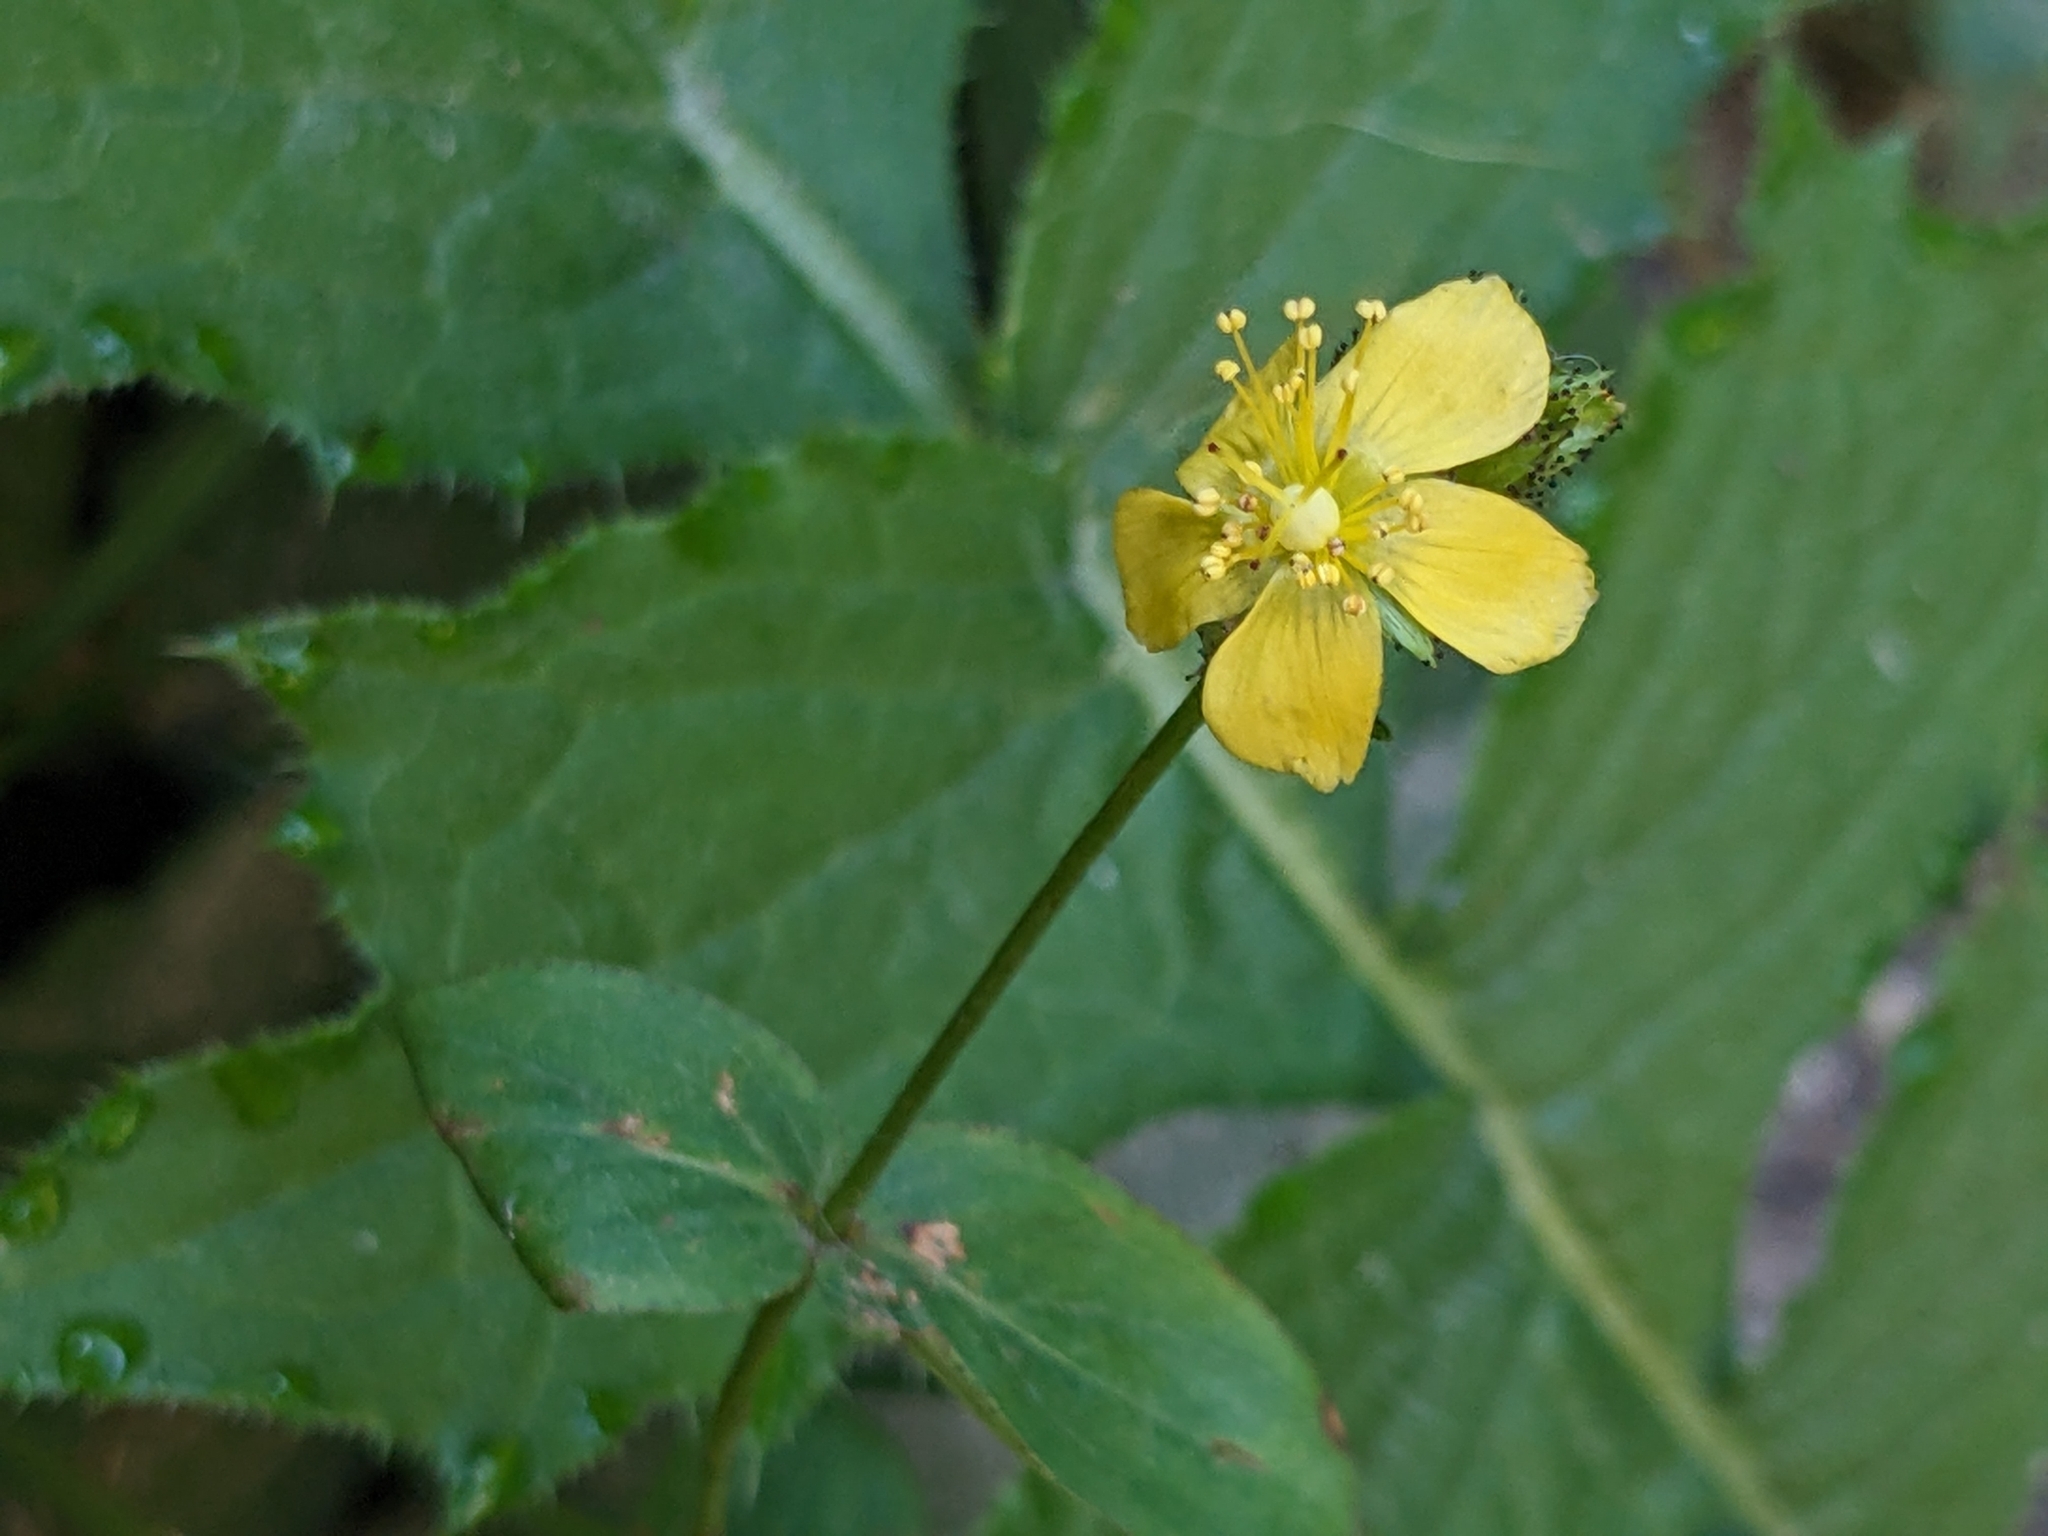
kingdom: Plantae
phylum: Tracheophyta
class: Magnoliopsida
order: Malpighiales
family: Hypericaceae
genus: Hypericum
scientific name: Hypericum montanum
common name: Pale st. john's-wort
